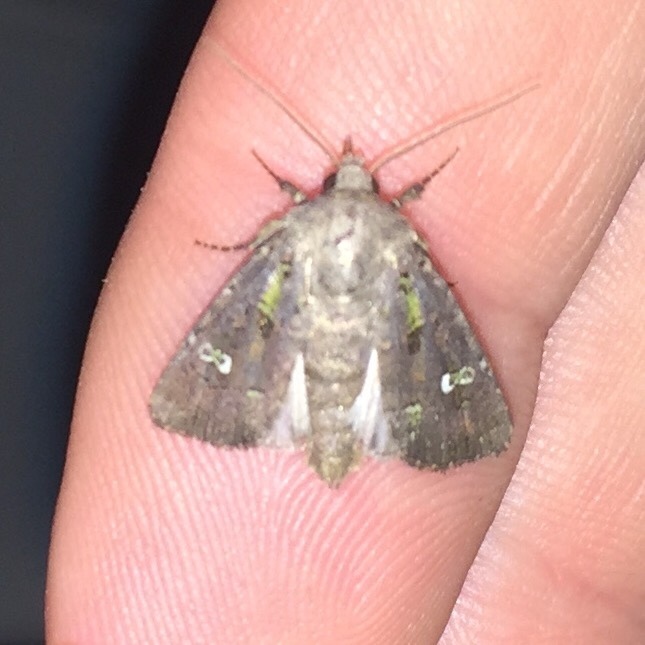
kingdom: Animalia
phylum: Arthropoda
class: Insecta
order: Lepidoptera
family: Noctuidae
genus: Lacinipolia
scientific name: Lacinipolia renigera
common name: Kidney-spotted minor
